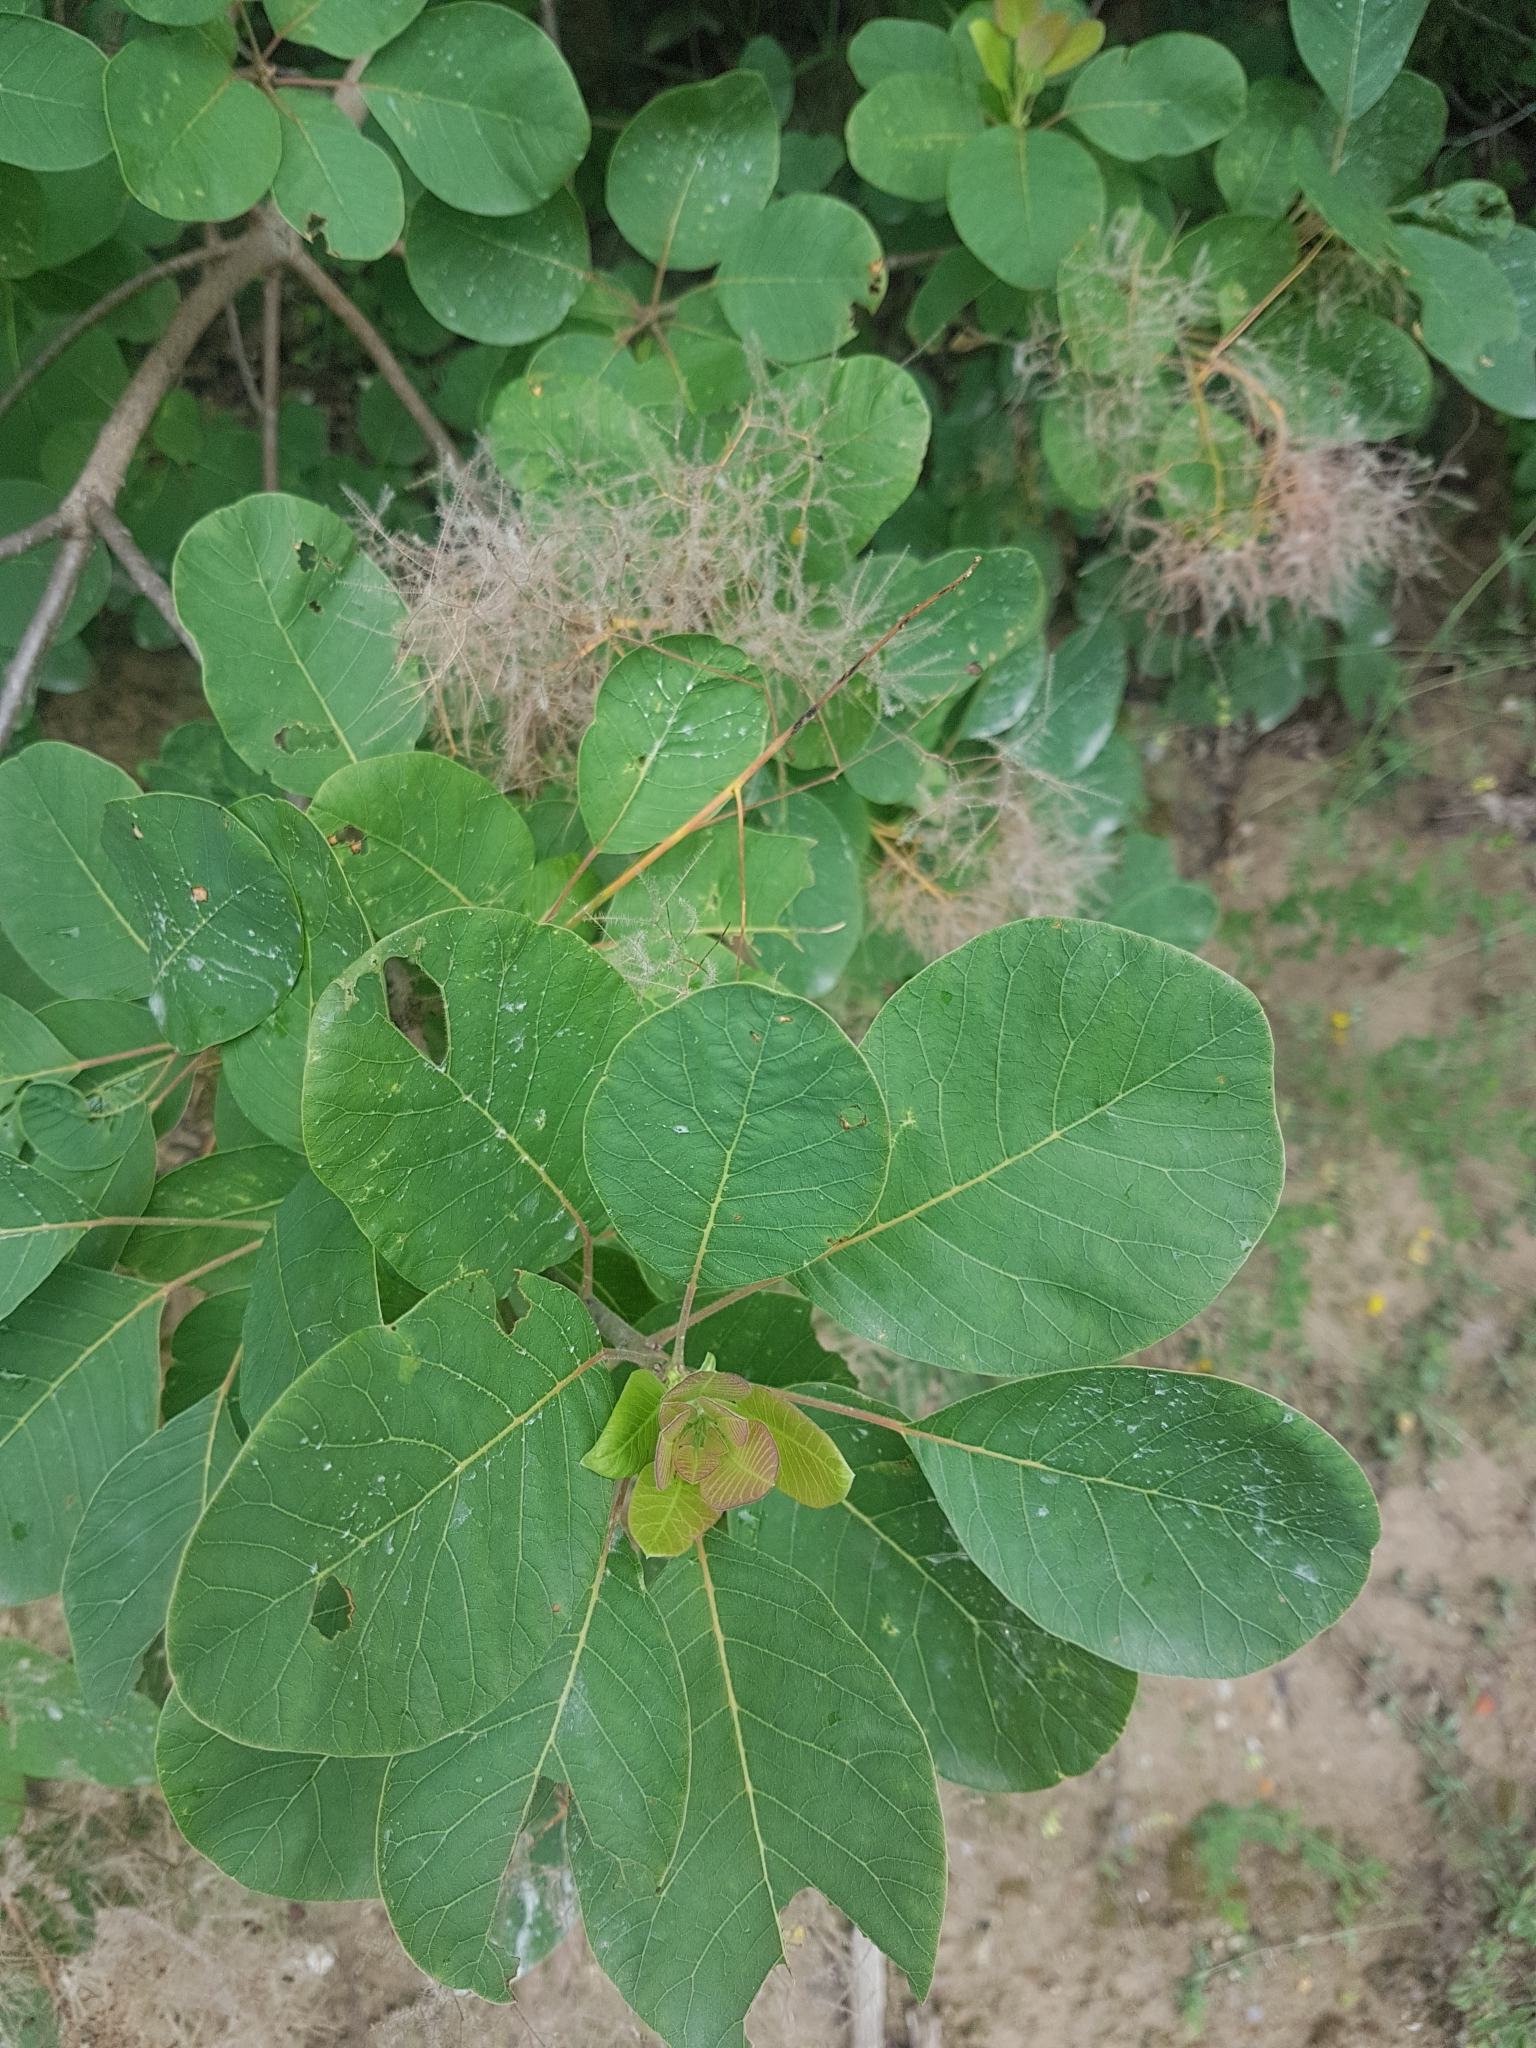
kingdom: Plantae
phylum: Tracheophyta
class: Magnoliopsida
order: Sapindales
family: Anacardiaceae
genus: Cotinus
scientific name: Cotinus coggygria
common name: Smoke-tree
